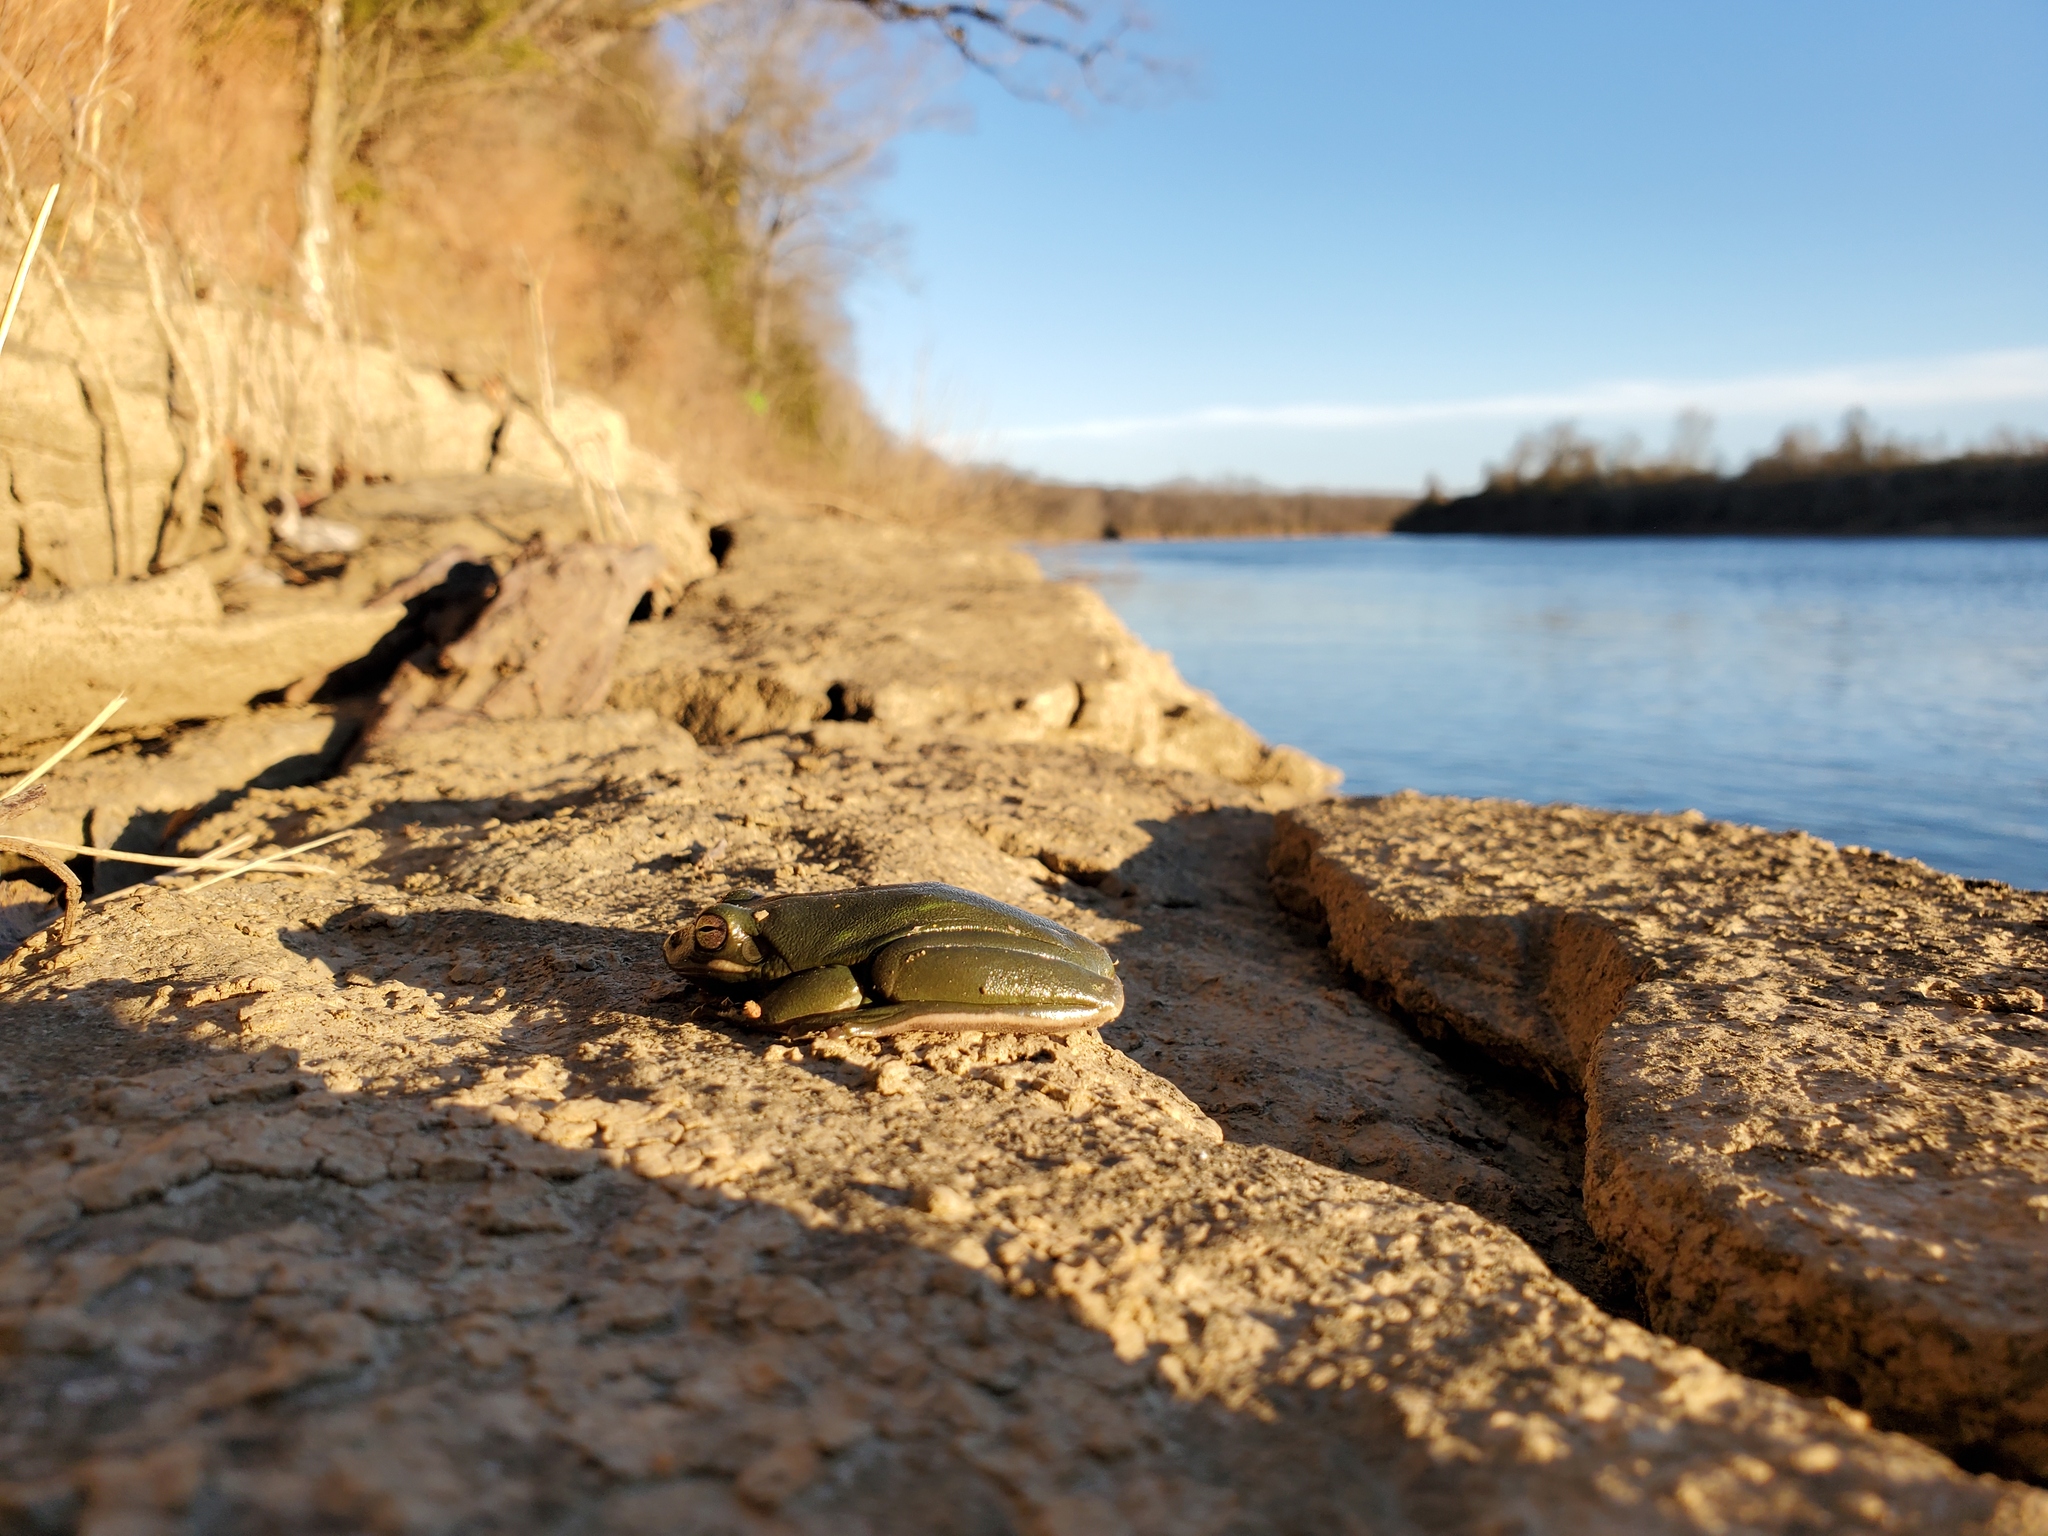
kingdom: Animalia
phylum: Chordata
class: Amphibia
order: Anura
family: Hylidae
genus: Dryophytes
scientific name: Dryophytes cinereus
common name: Green treefrog
